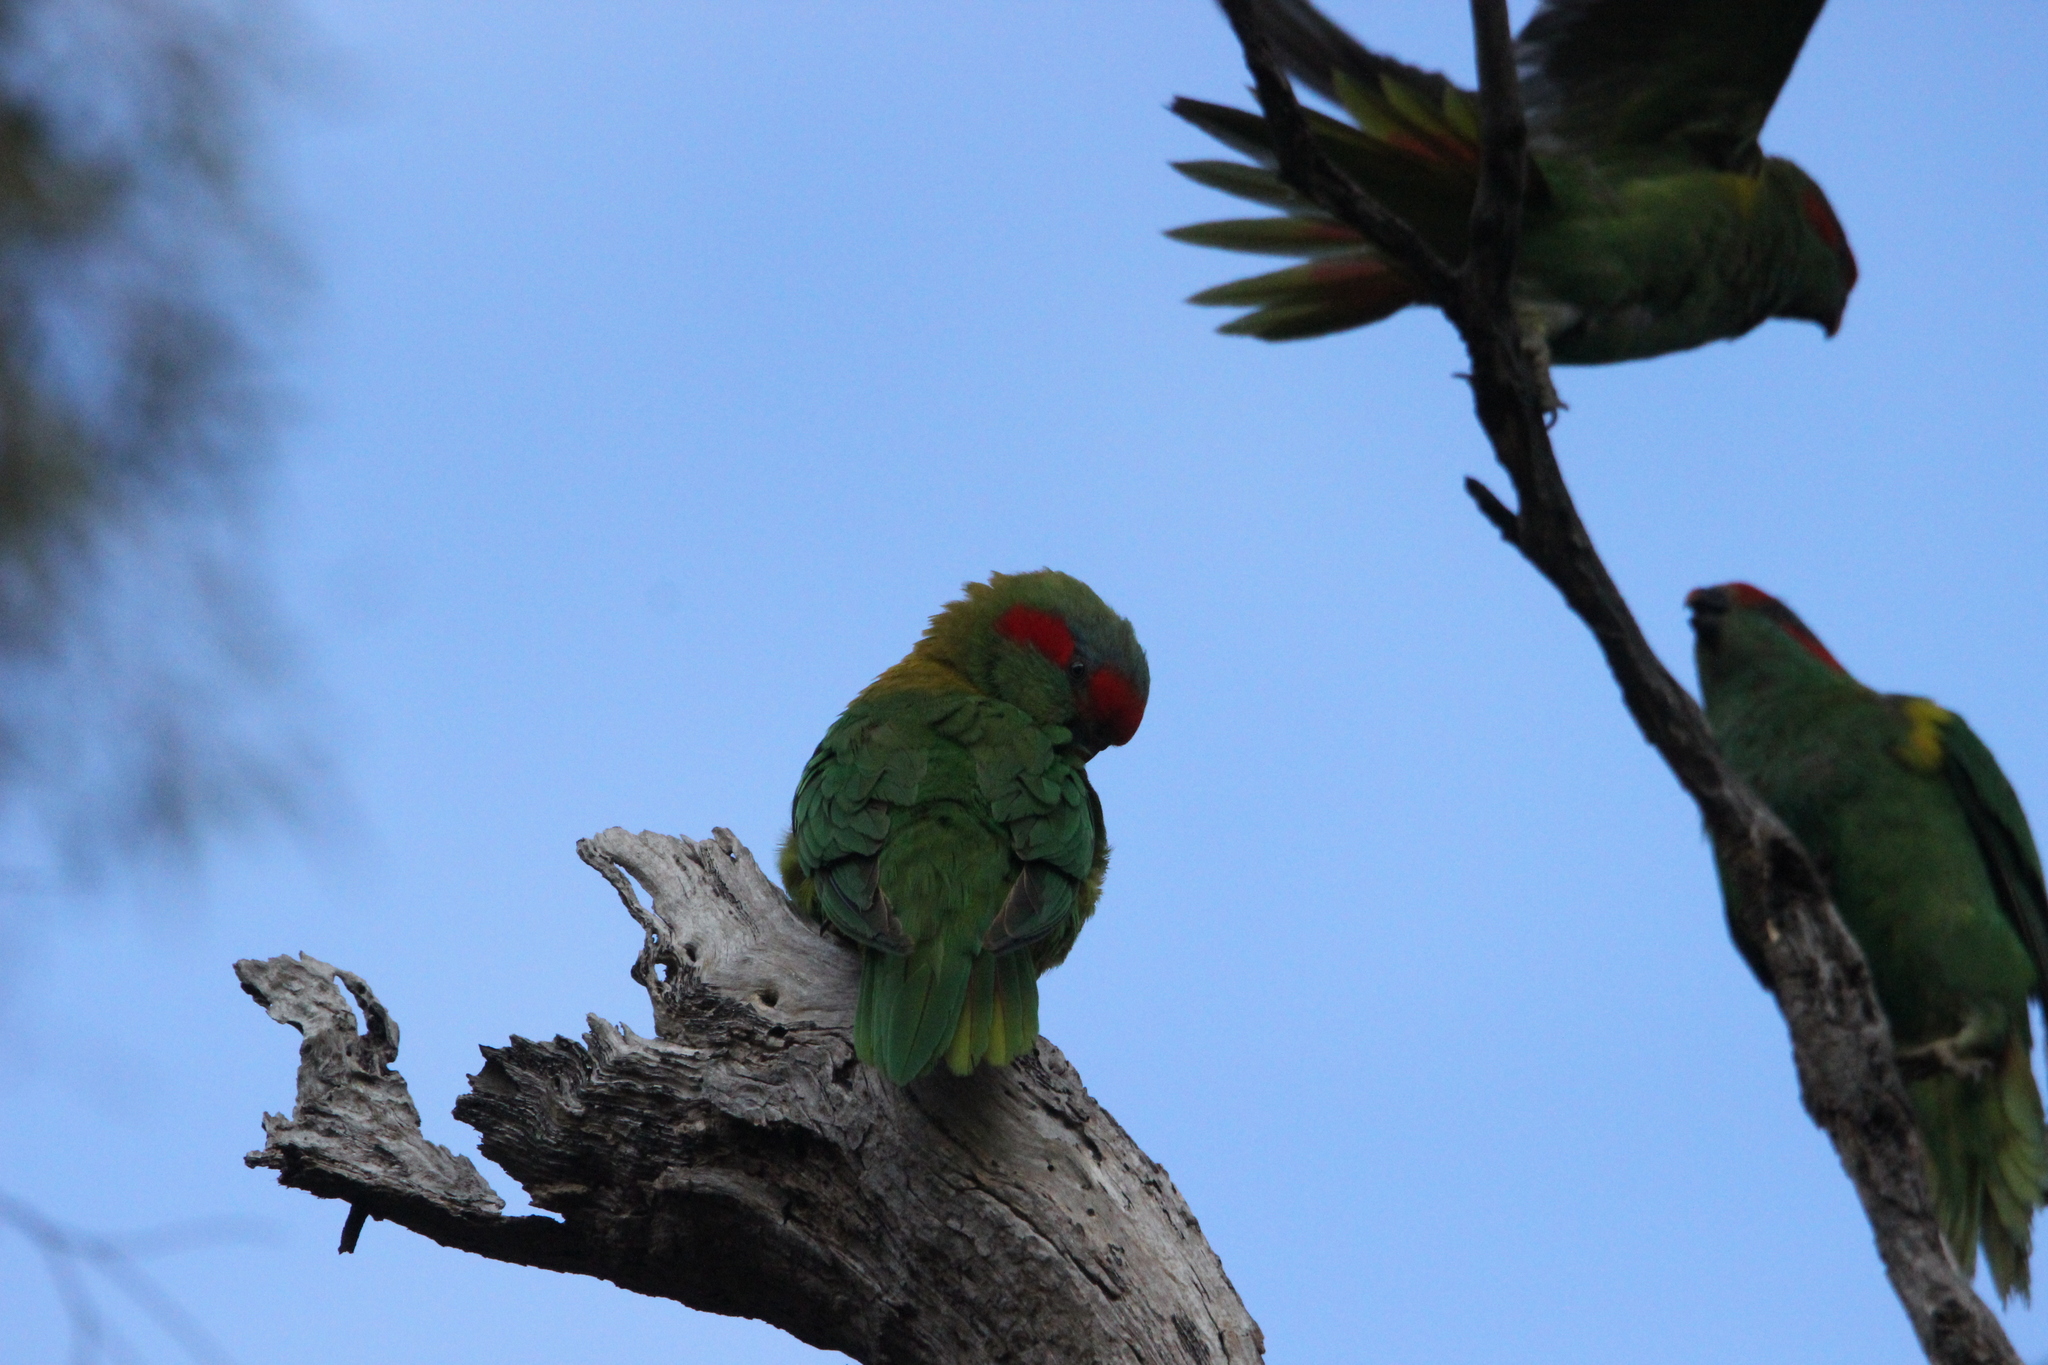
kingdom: Animalia
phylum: Chordata
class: Aves
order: Psittaciformes
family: Psittacidae
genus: Glossopsitta
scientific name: Glossopsitta concinna
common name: Musk lorikeet
